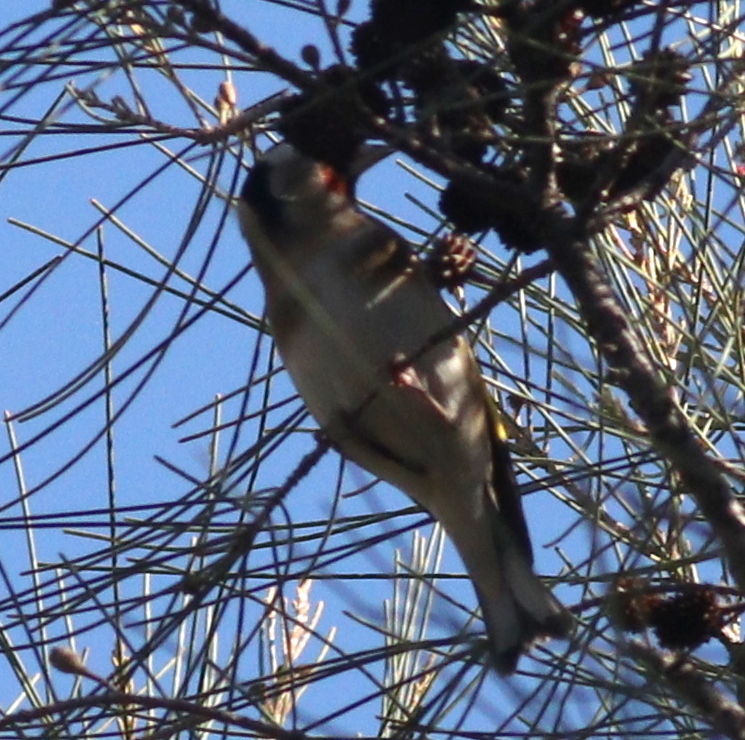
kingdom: Animalia
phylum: Chordata
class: Aves
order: Passeriformes
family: Fringillidae
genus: Carduelis
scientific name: Carduelis carduelis
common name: European goldfinch
